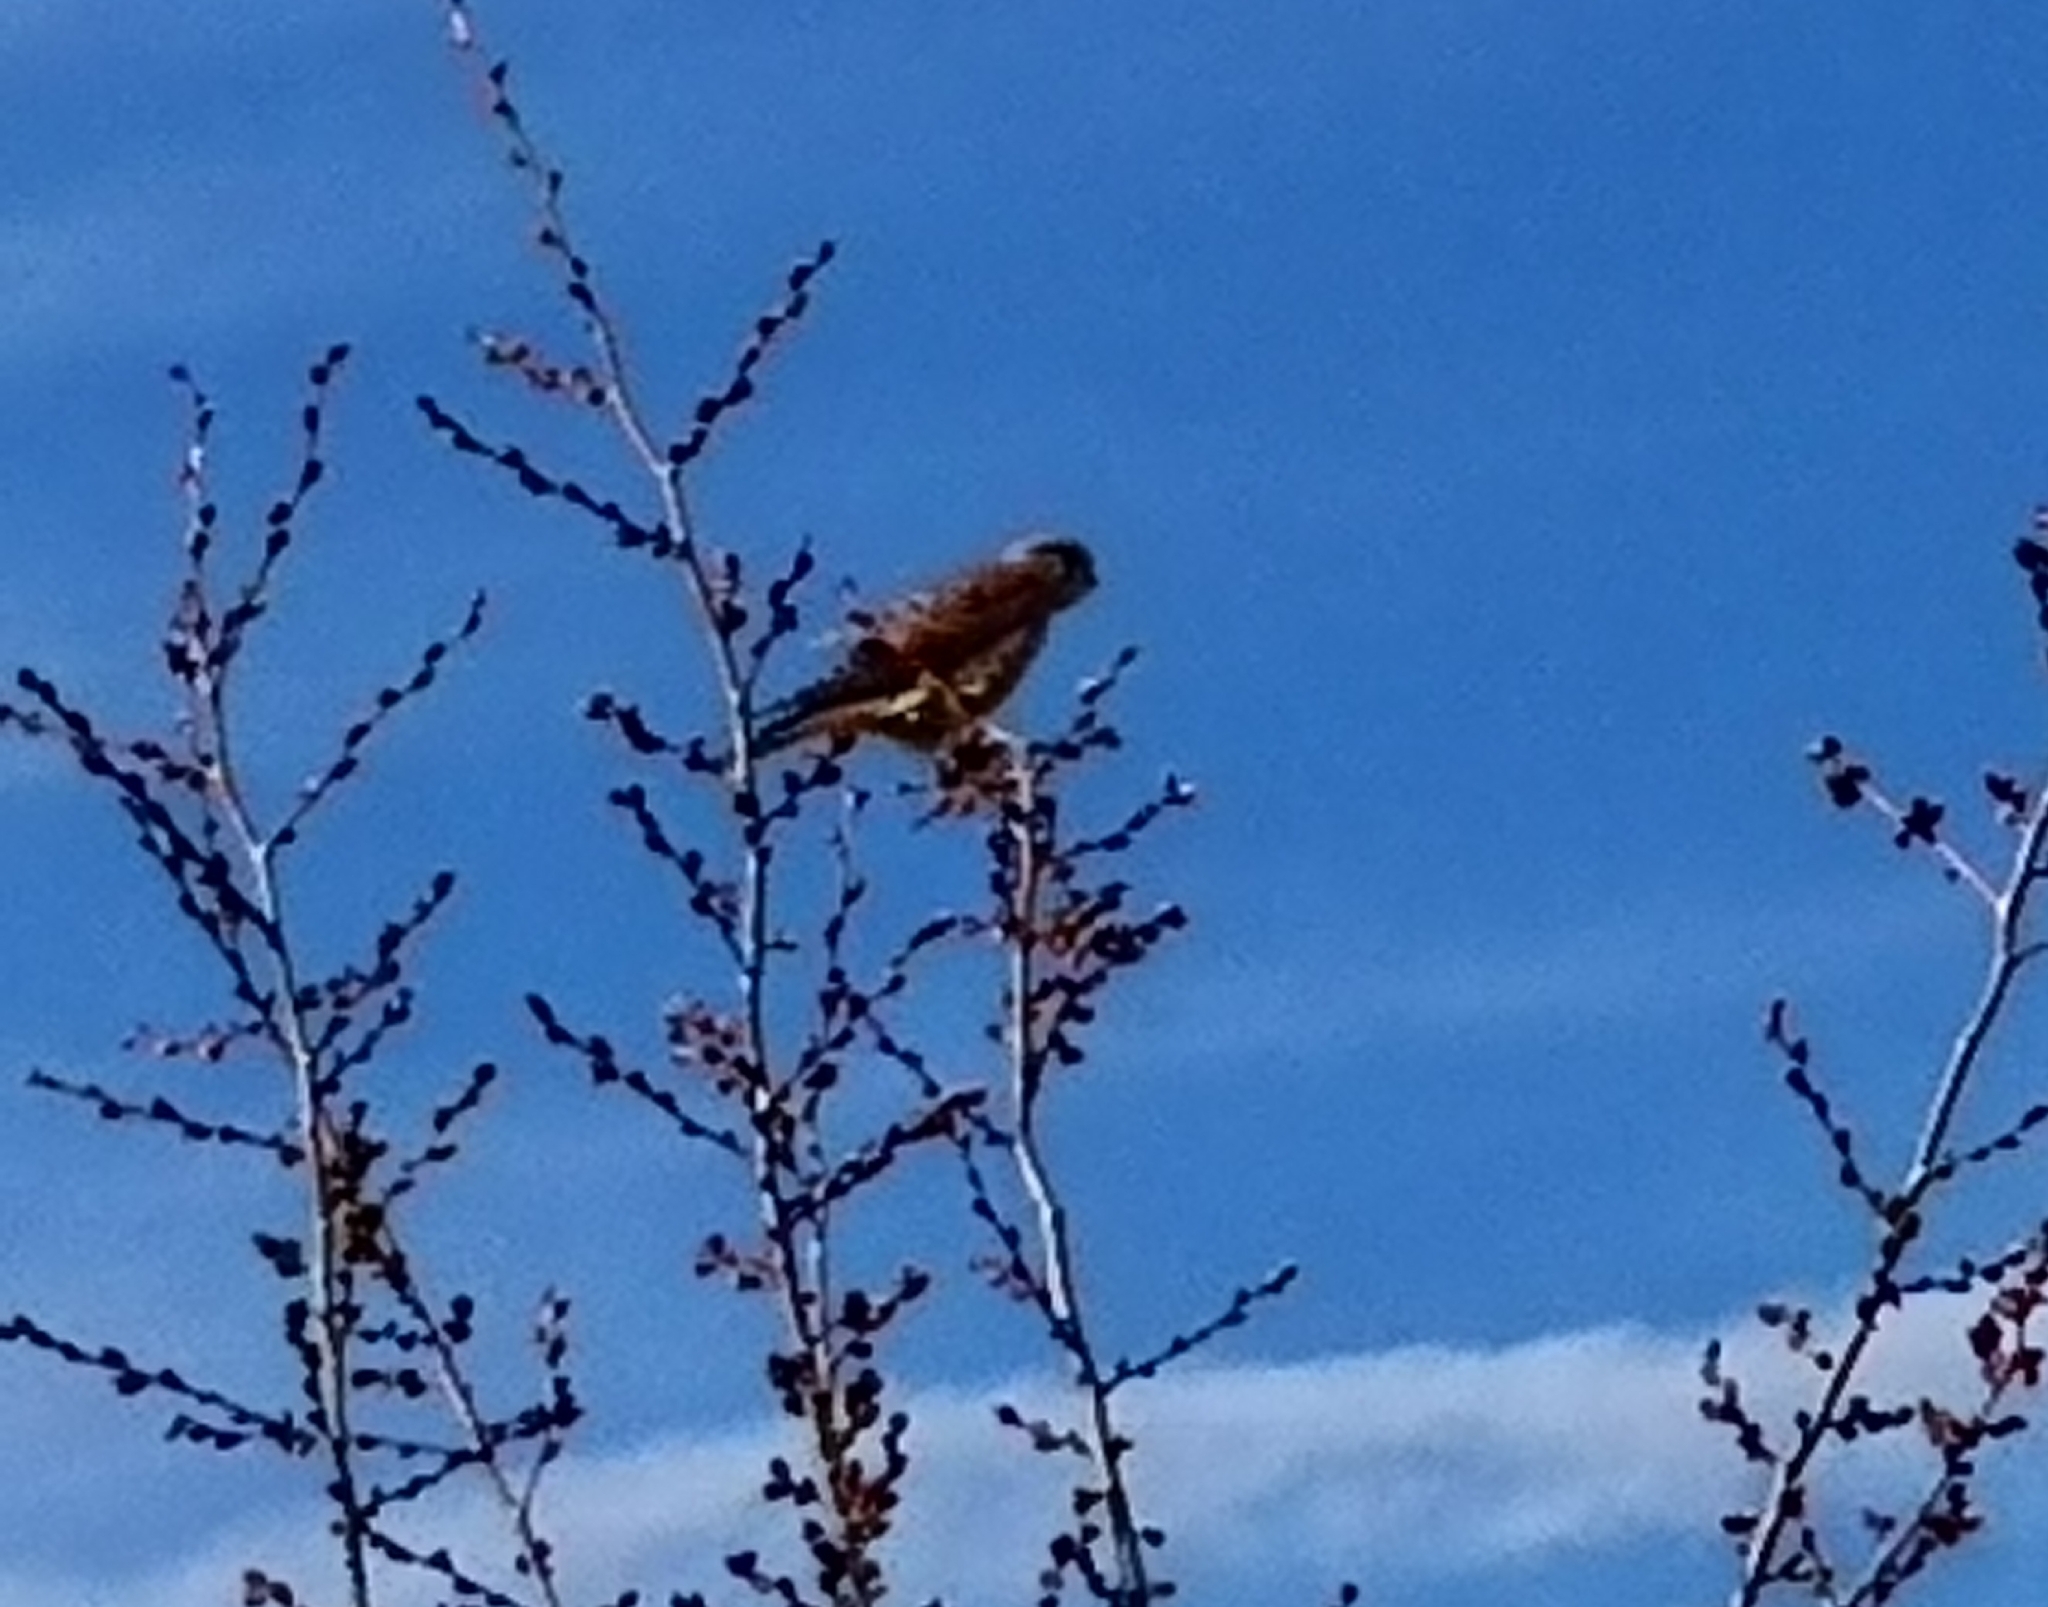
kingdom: Animalia
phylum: Chordata
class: Aves
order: Falconiformes
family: Falconidae
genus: Falco
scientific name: Falco tinnunculus
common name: Common kestrel
